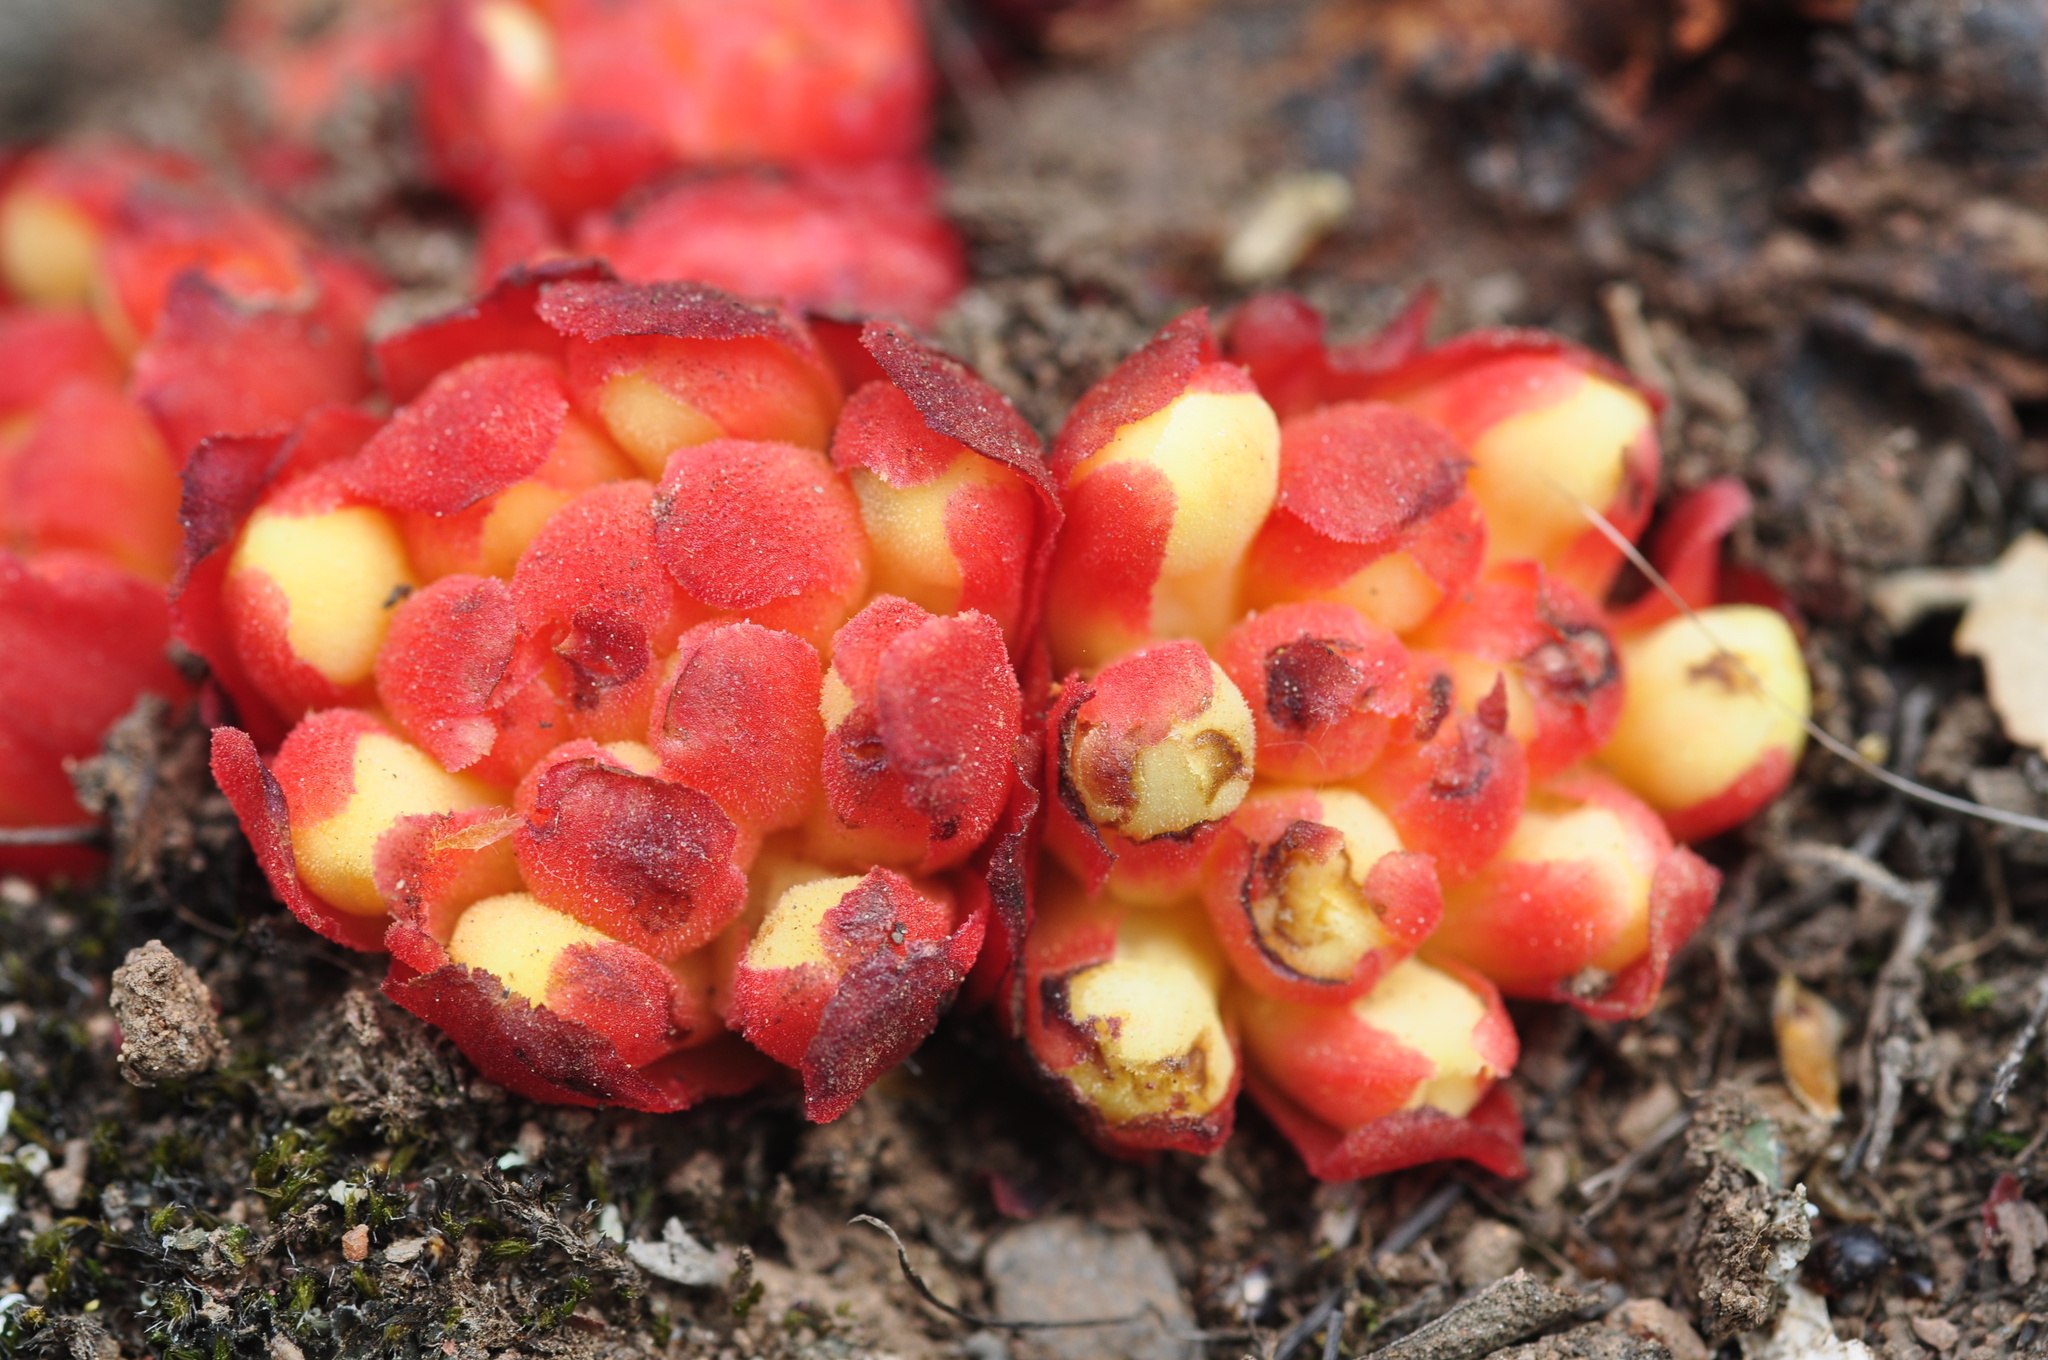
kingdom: Plantae
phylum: Tracheophyta
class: Magnoliopsida
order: Malvales
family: Cytinaceae
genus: Cytinus
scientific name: Cytinus hypocistis
